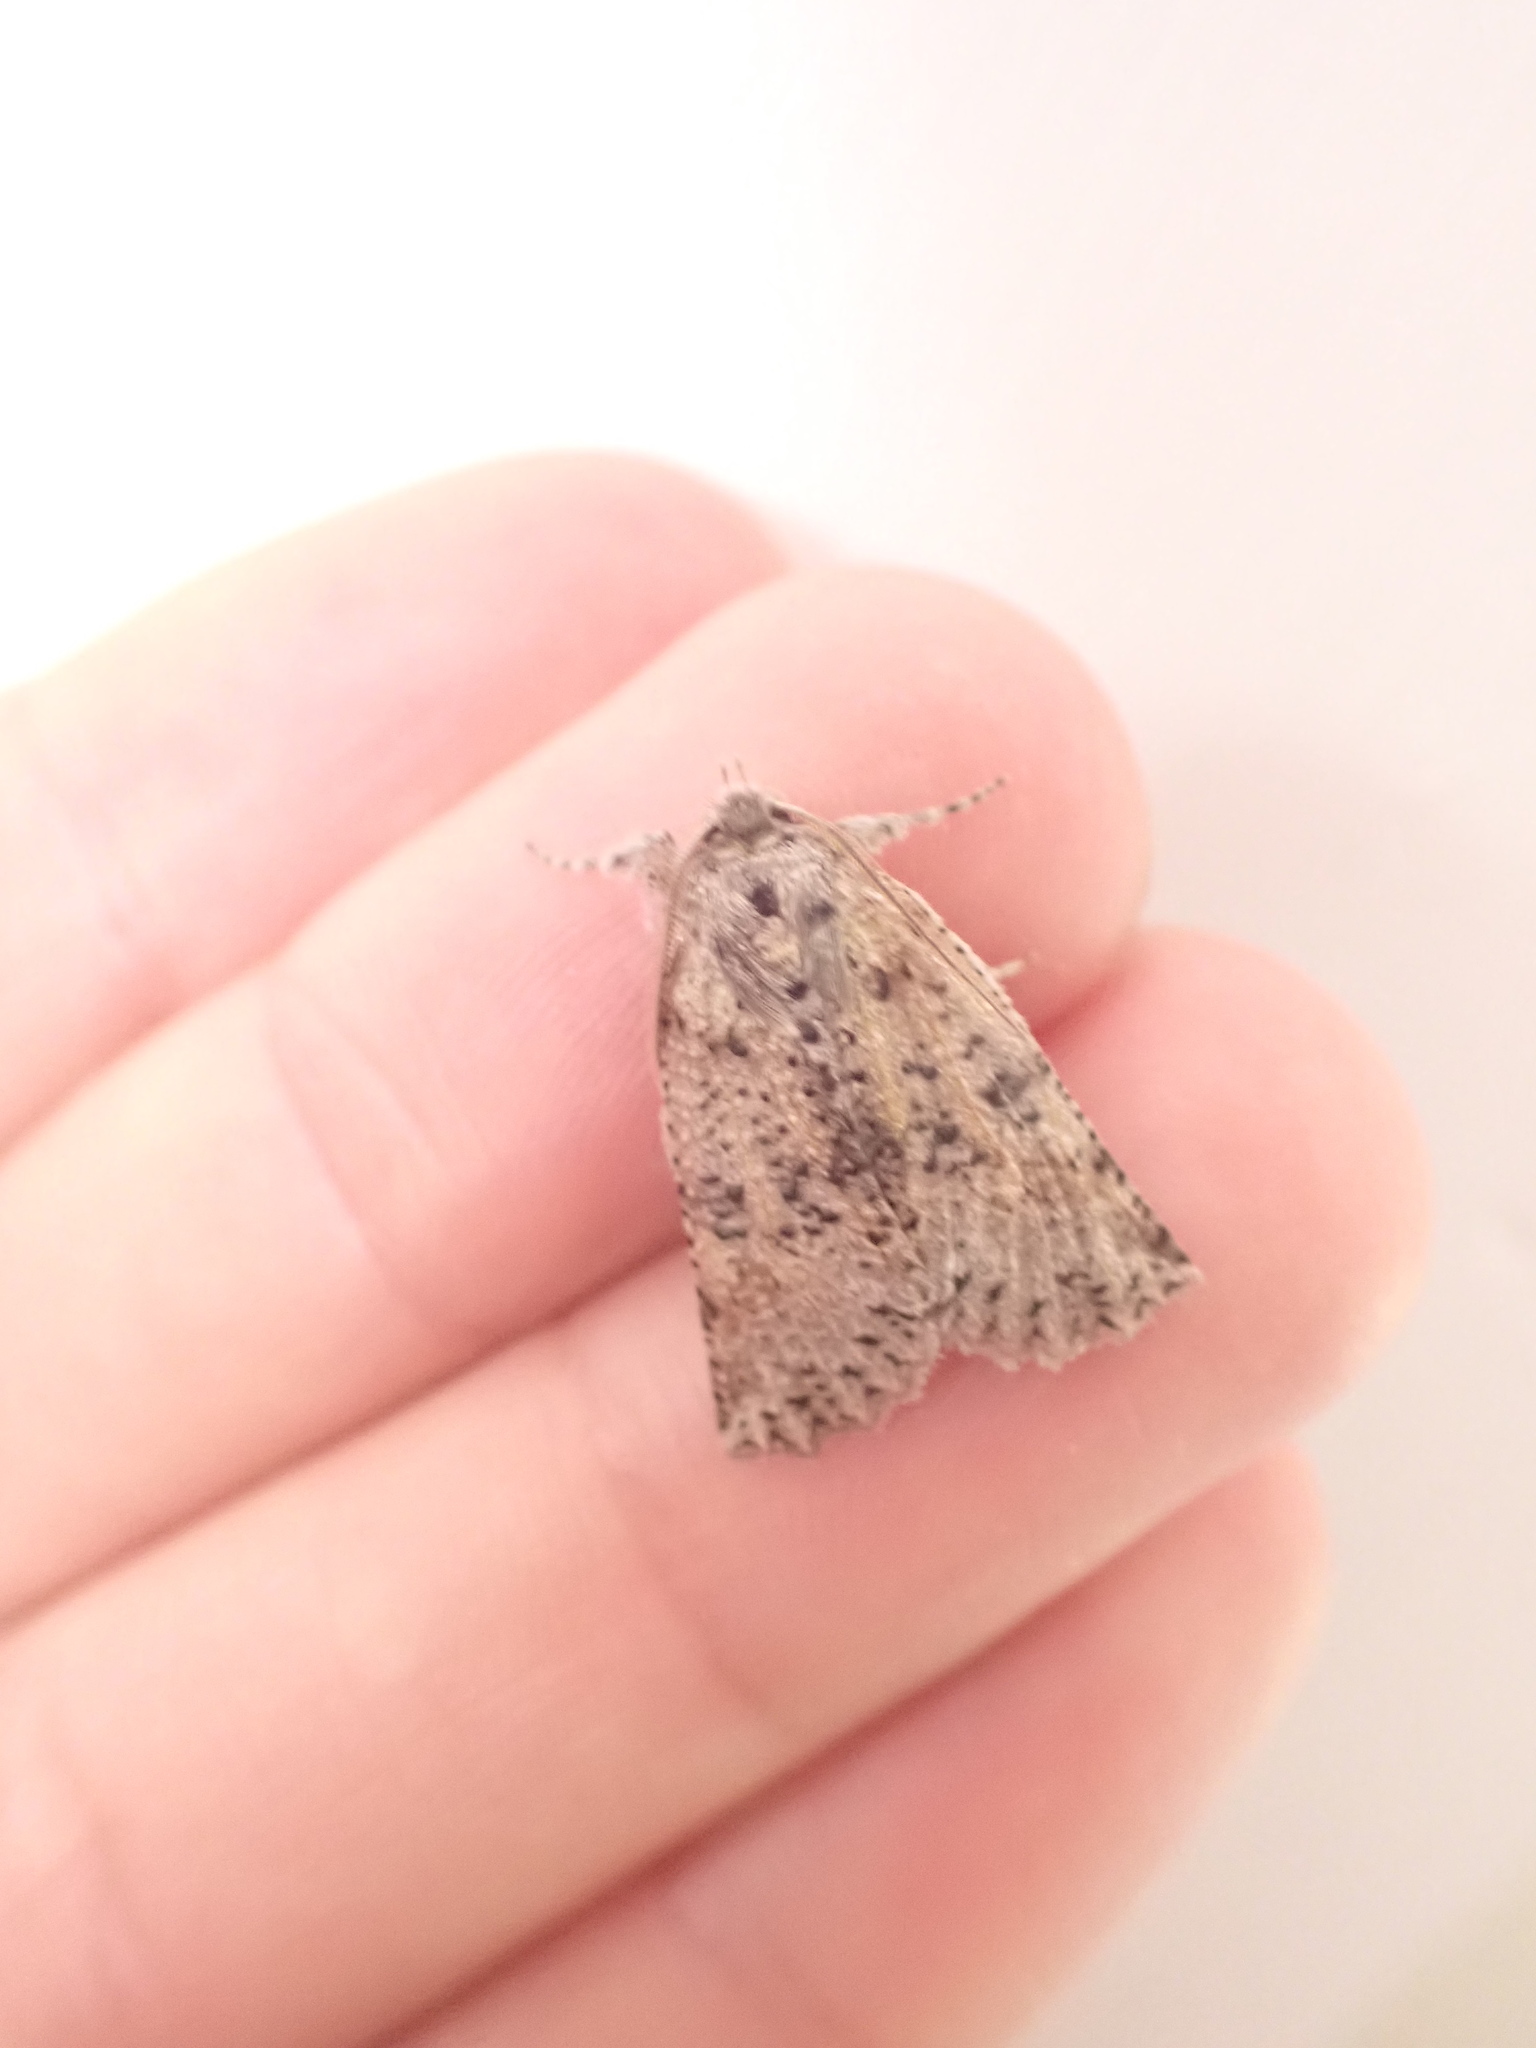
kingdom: Animalia
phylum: Arthropoda
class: Insecta
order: Lepidoptera
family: Geometridae
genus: Declana
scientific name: Declana floccosa
